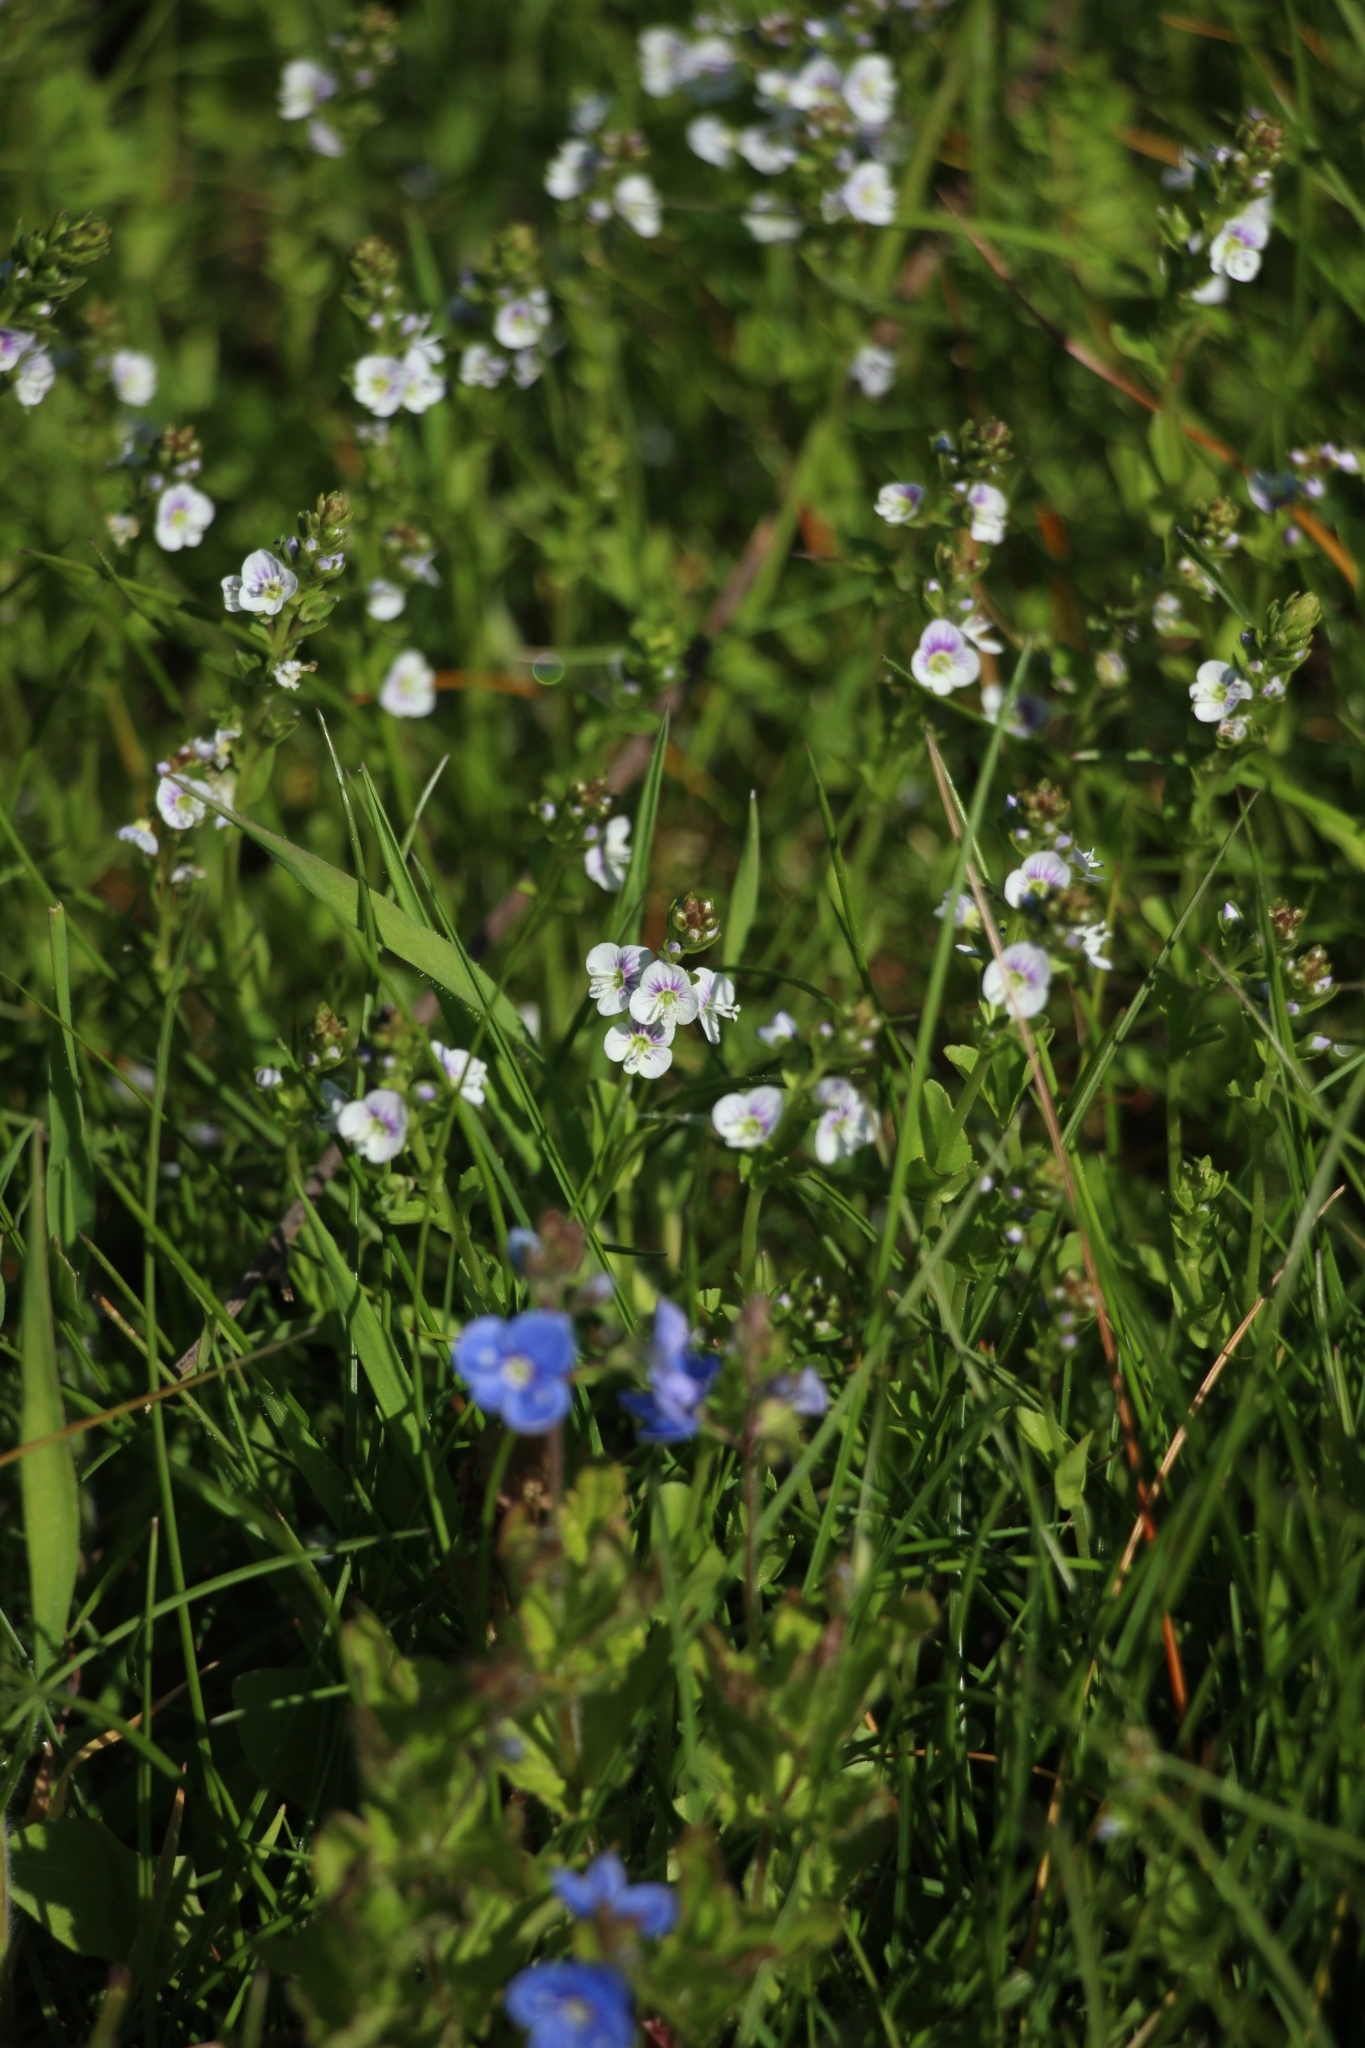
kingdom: Plantae
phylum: Tracheophyta
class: Magnoliopsida
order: Lamiales
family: Plantaginaceae
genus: Veronica
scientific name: Veronica serpyllifolia
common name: Thyme-leaved speedwell
